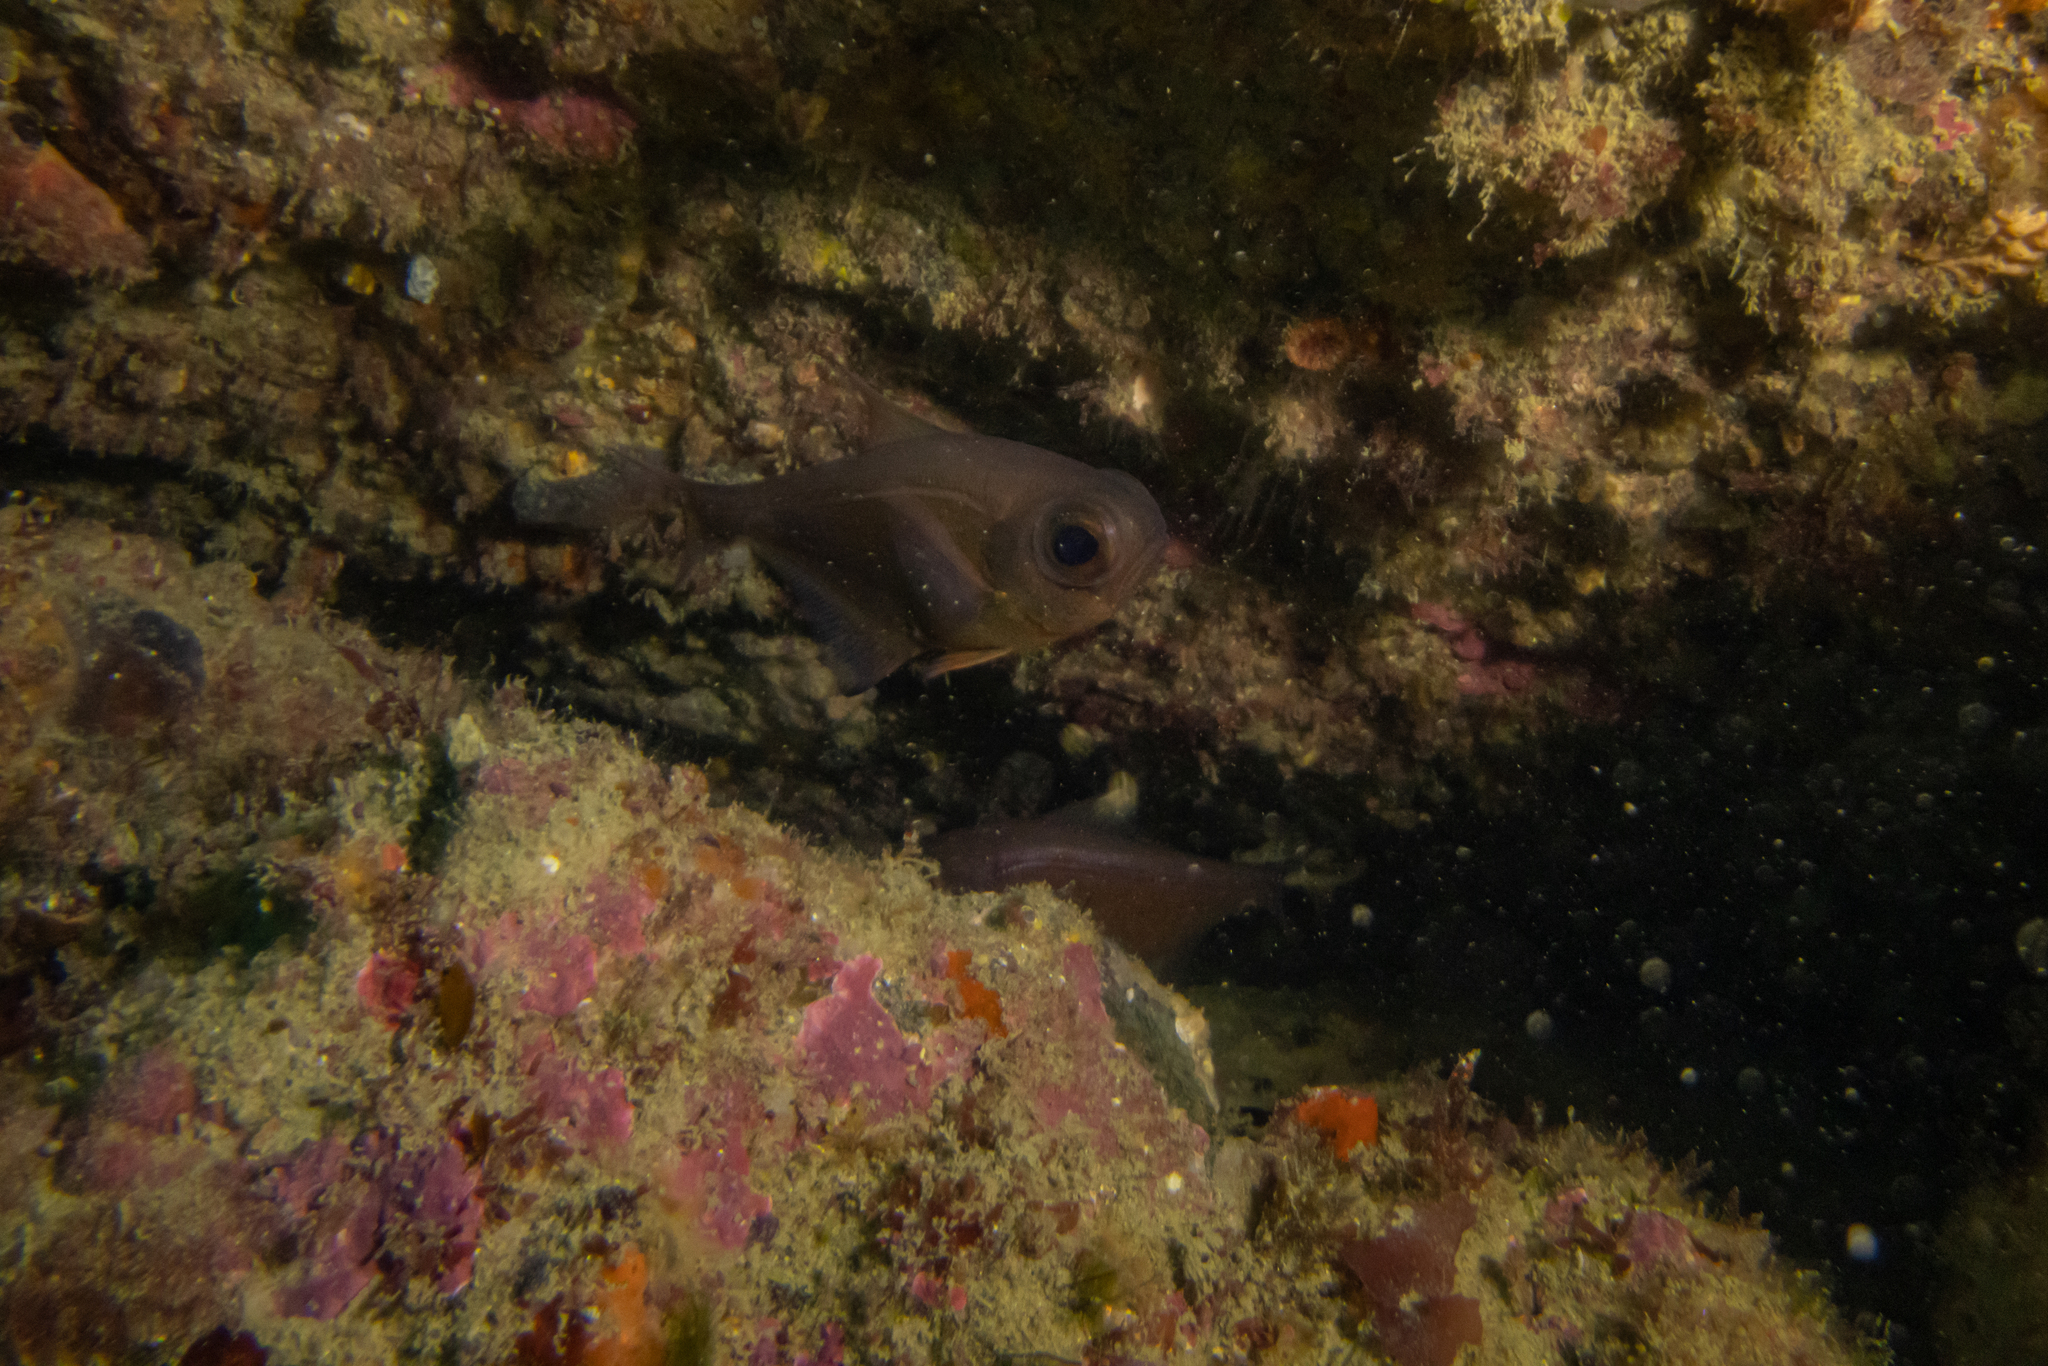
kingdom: Animalia
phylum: Chordata
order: Perciformes
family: Pempheridae
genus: Pempheris
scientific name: Pempheris adspersa
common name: Bigeye
